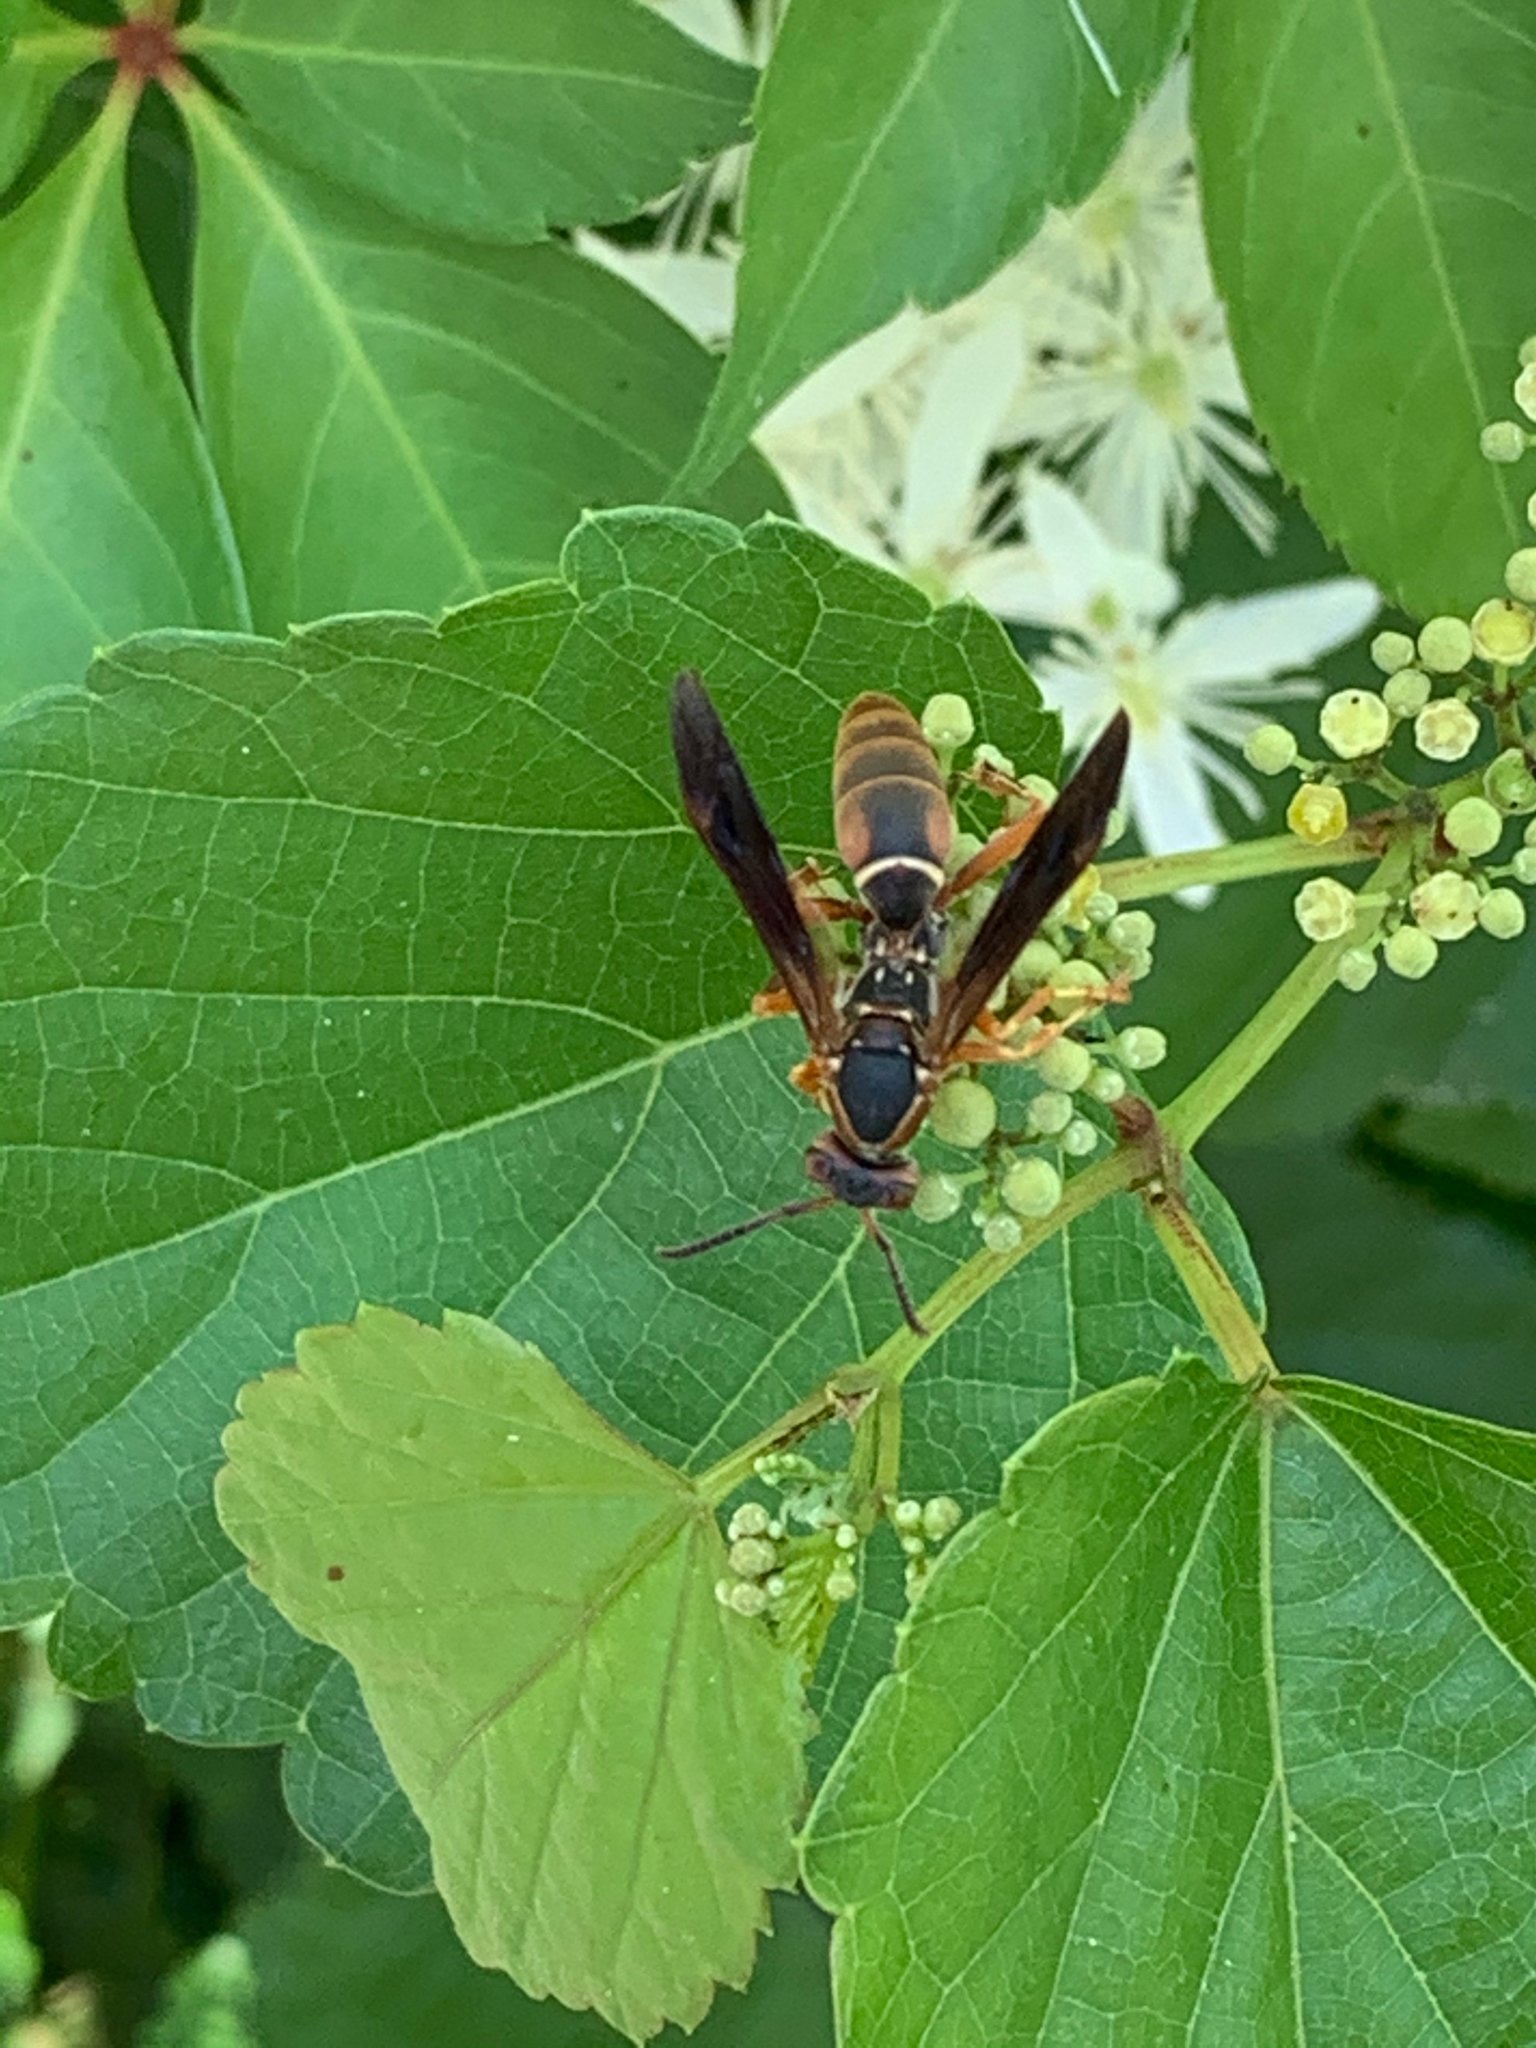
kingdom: Animalia
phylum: Arthropoda
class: Insecta
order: Hymenoptera
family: Eumenidae
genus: Polistes
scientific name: Polistes fuscatus
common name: Dark paper wasp
